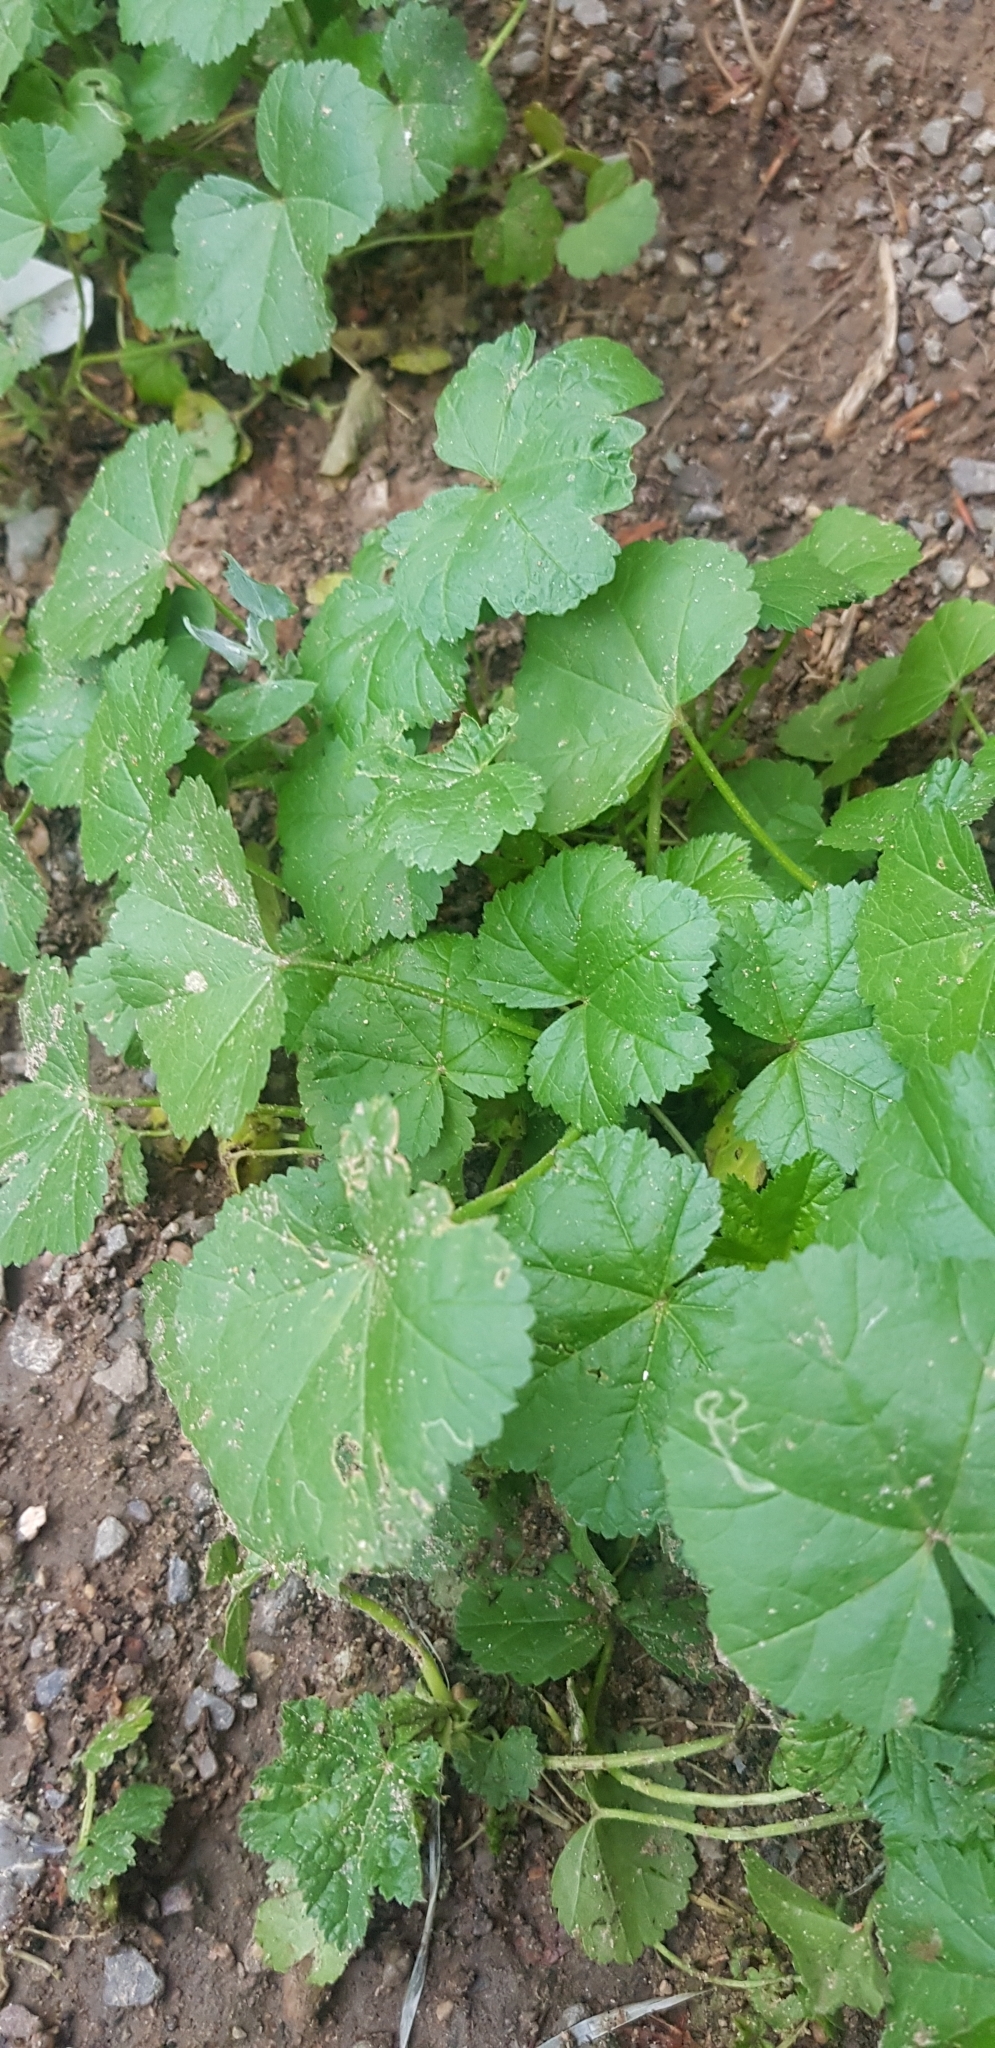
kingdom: Plantae
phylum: Tracheophyta
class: Magnoliopsida
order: Malvales
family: Malvaceae
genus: Malva
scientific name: Malva neglecta
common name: Common mallow
